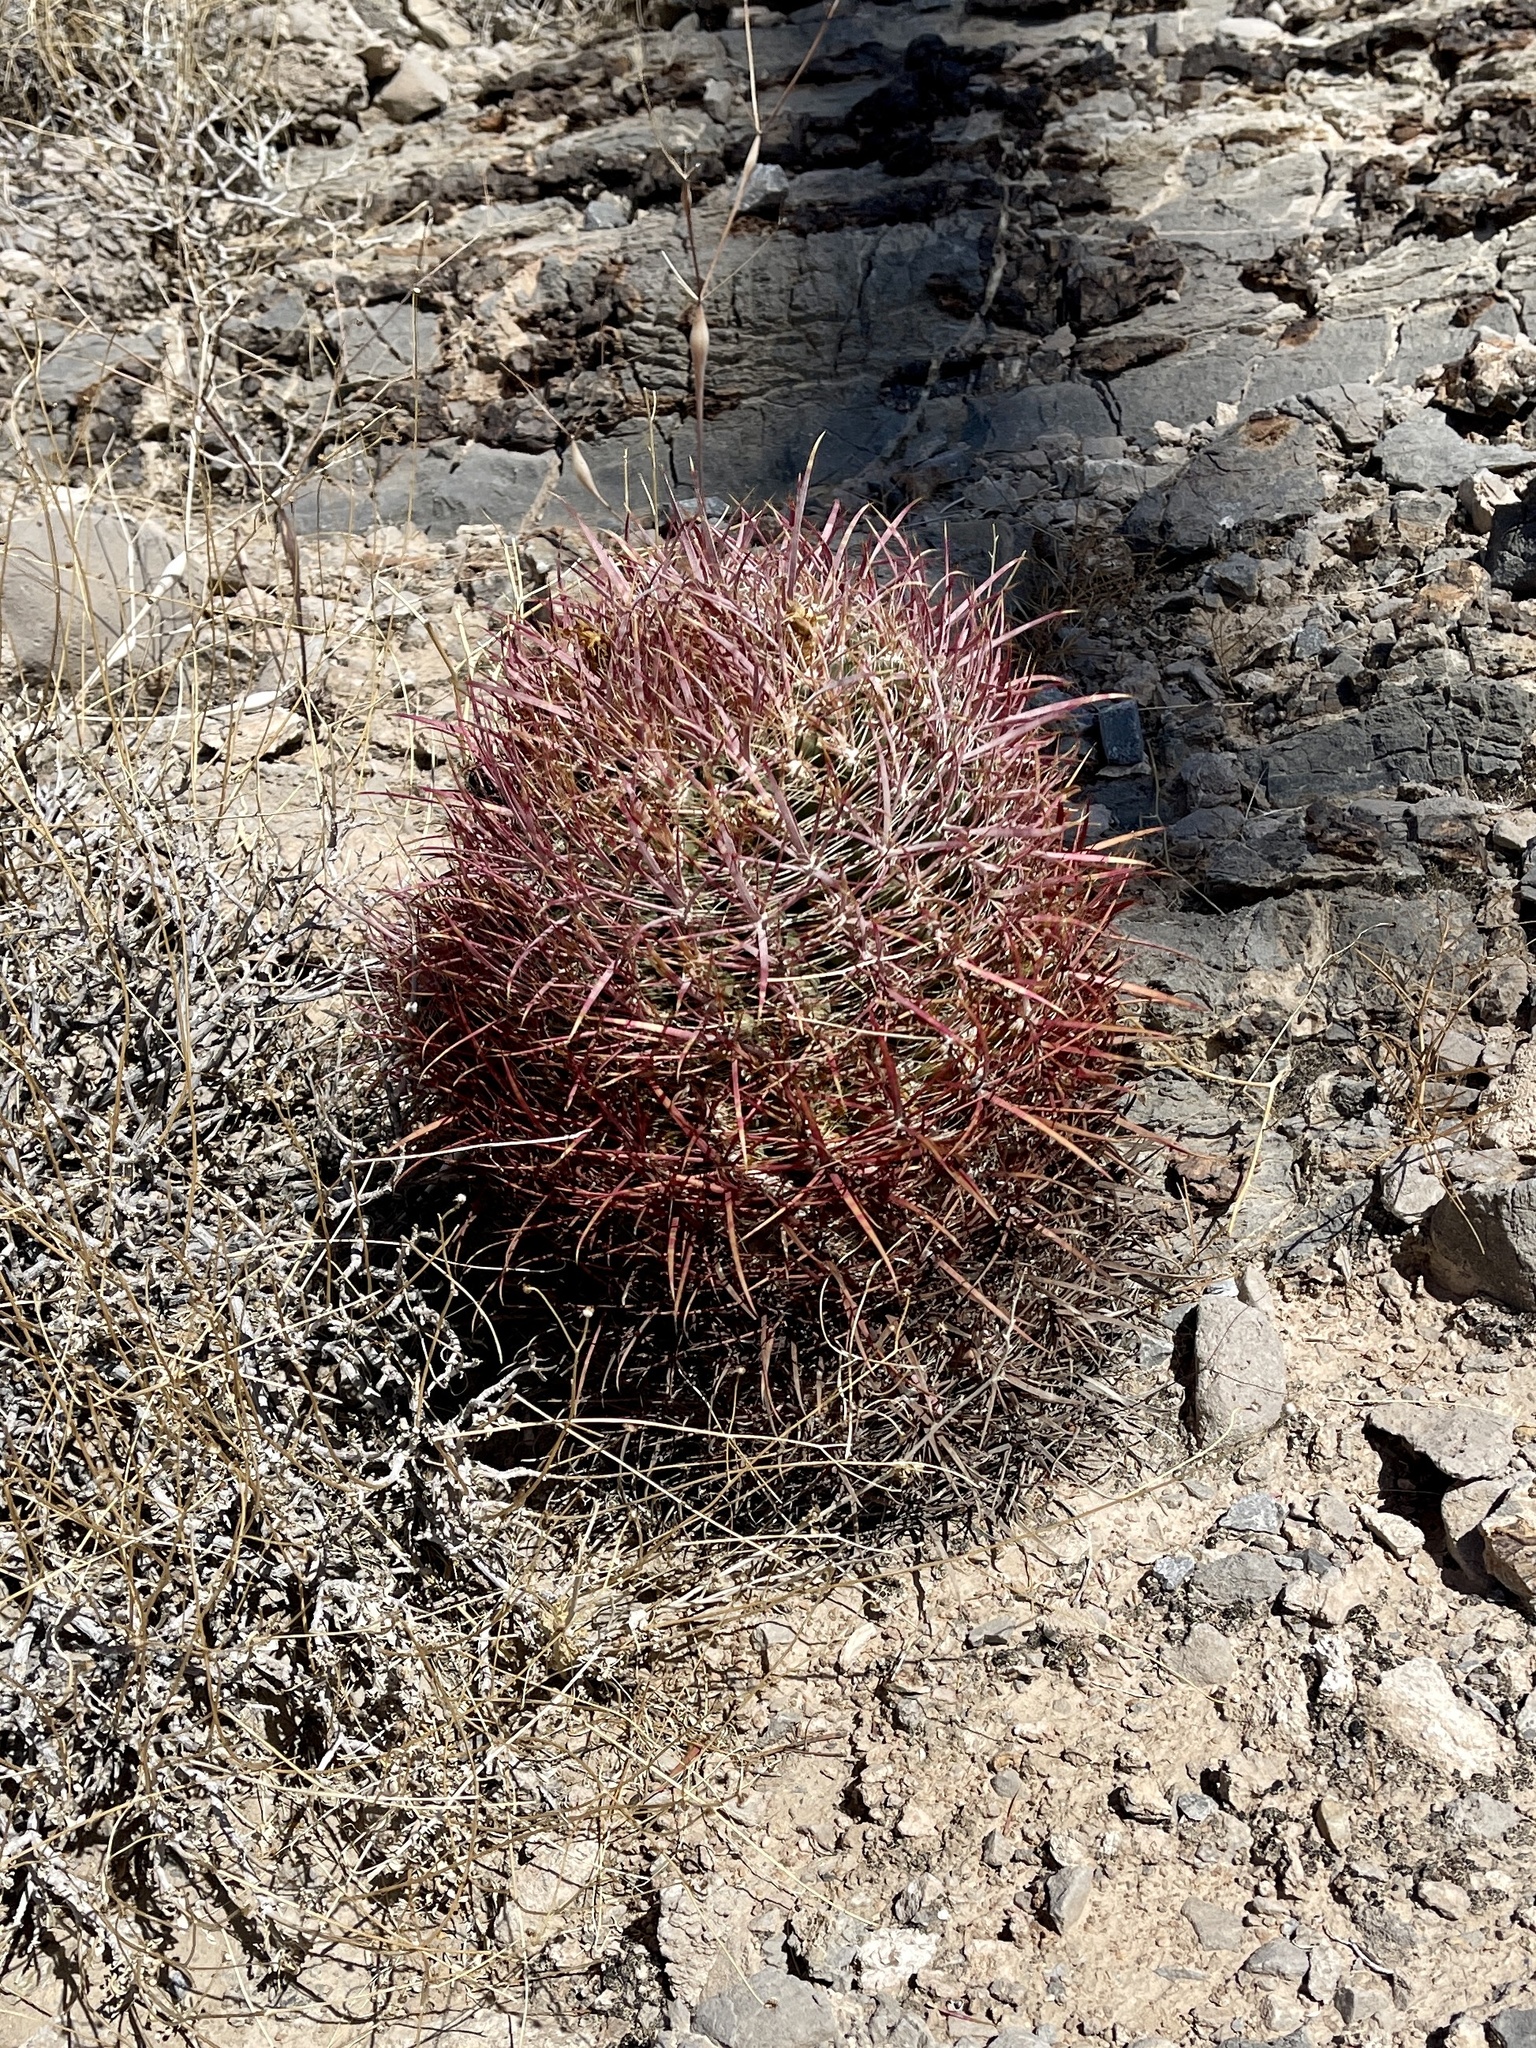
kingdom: Plantae
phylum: Tracheophyta
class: Magnoliopsida
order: Caryophyllales
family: Cactaceae
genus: Ferocactus
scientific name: Ferocactus cylindraceus
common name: California barrel cactus
